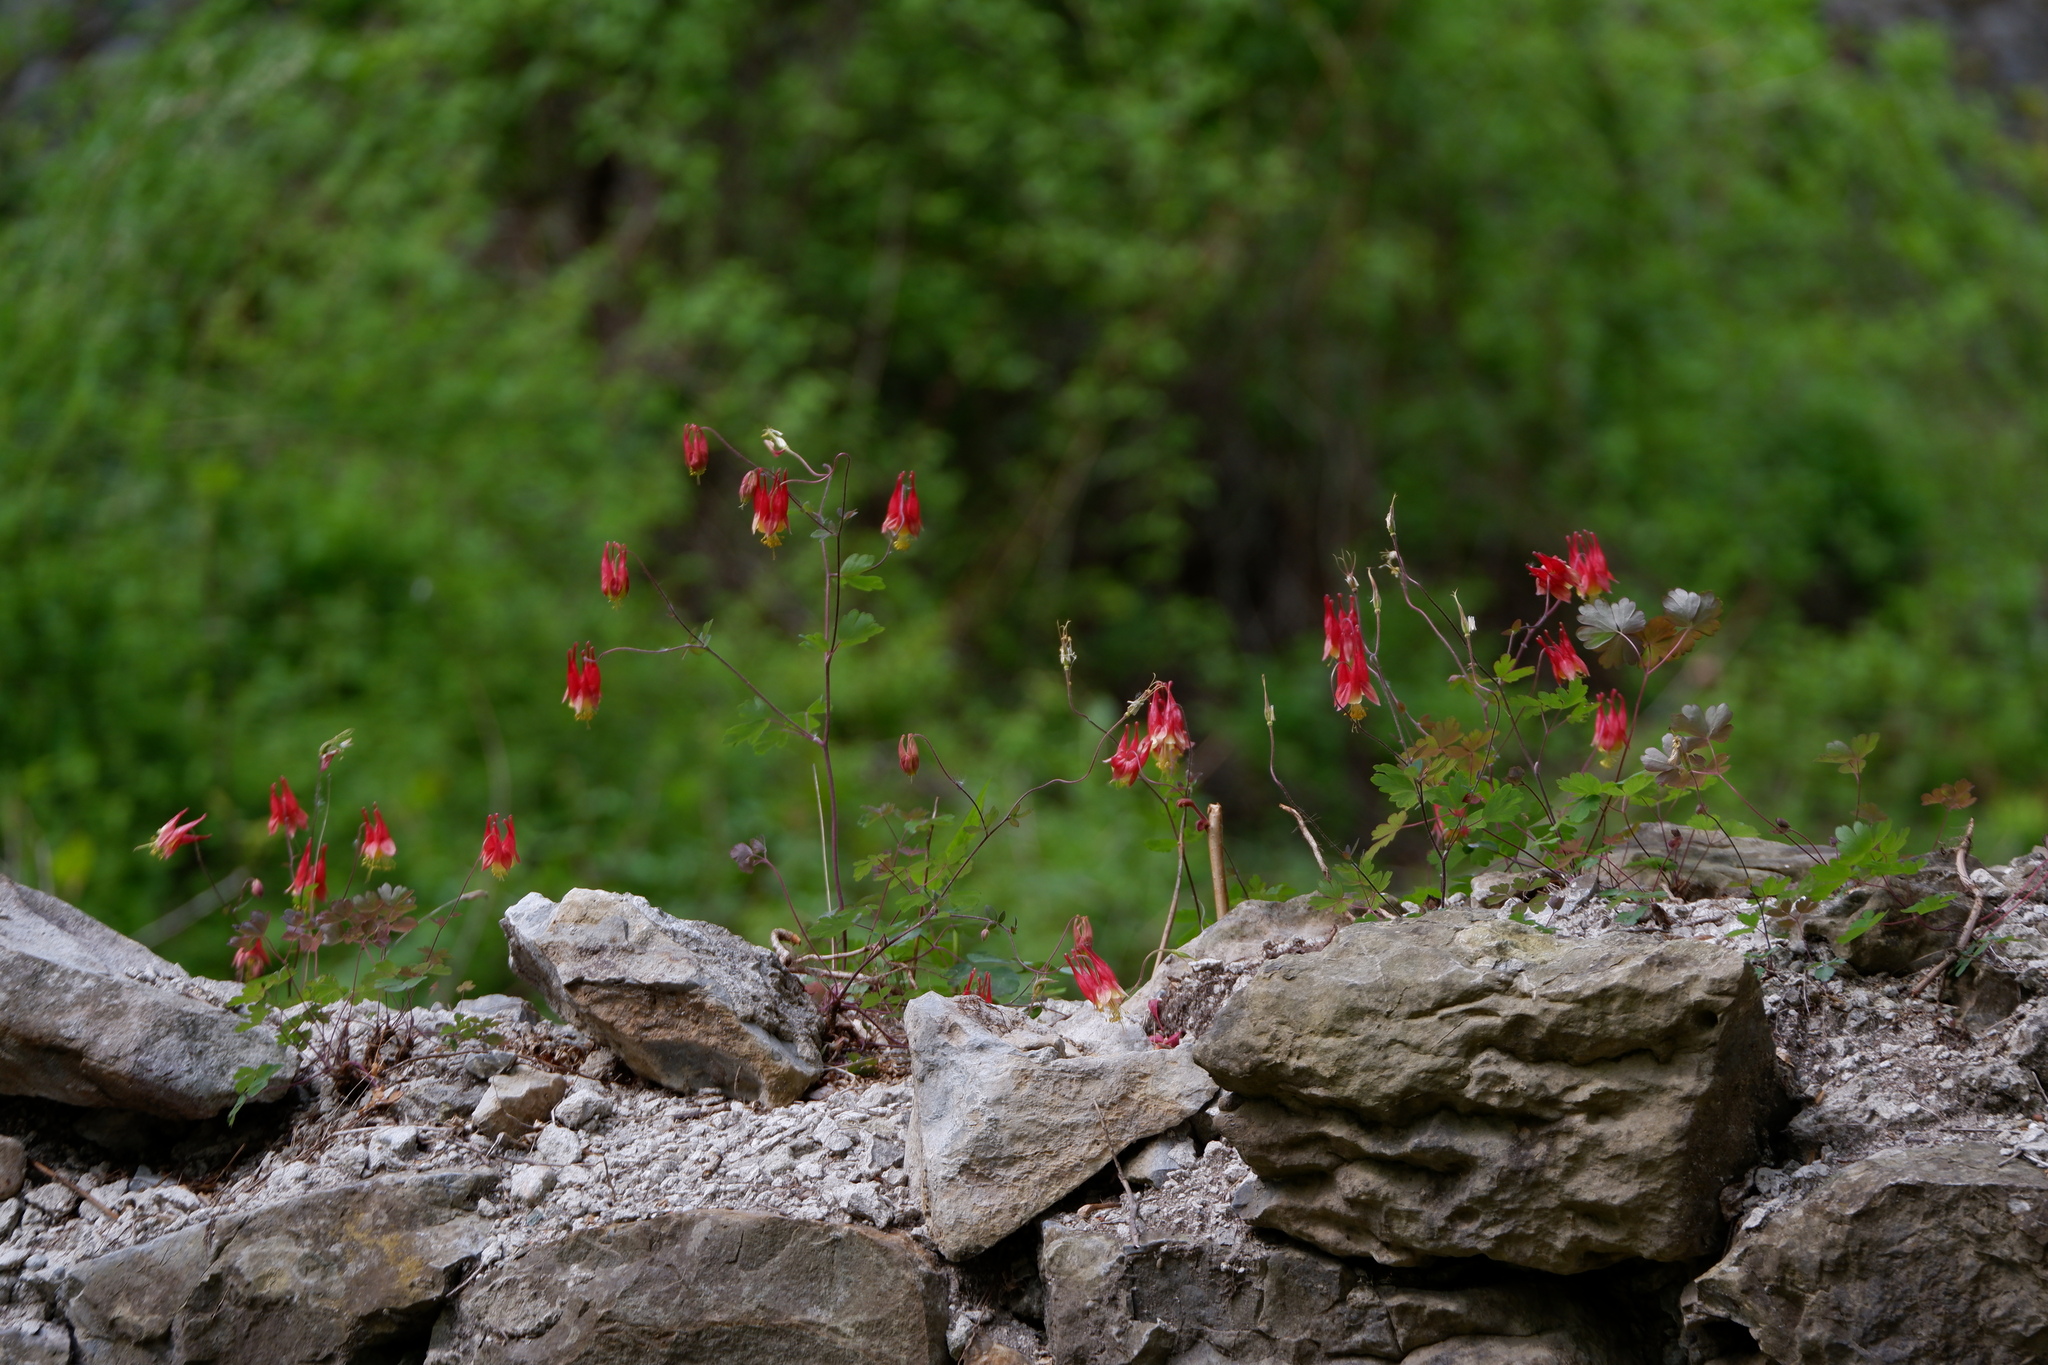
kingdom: Plantae
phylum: Tracheophyta
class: Magnoliopsida
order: Ranunculales
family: Ranunculaceae
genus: Aquilegia
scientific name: Aquilegia canadensis
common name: American columbine
